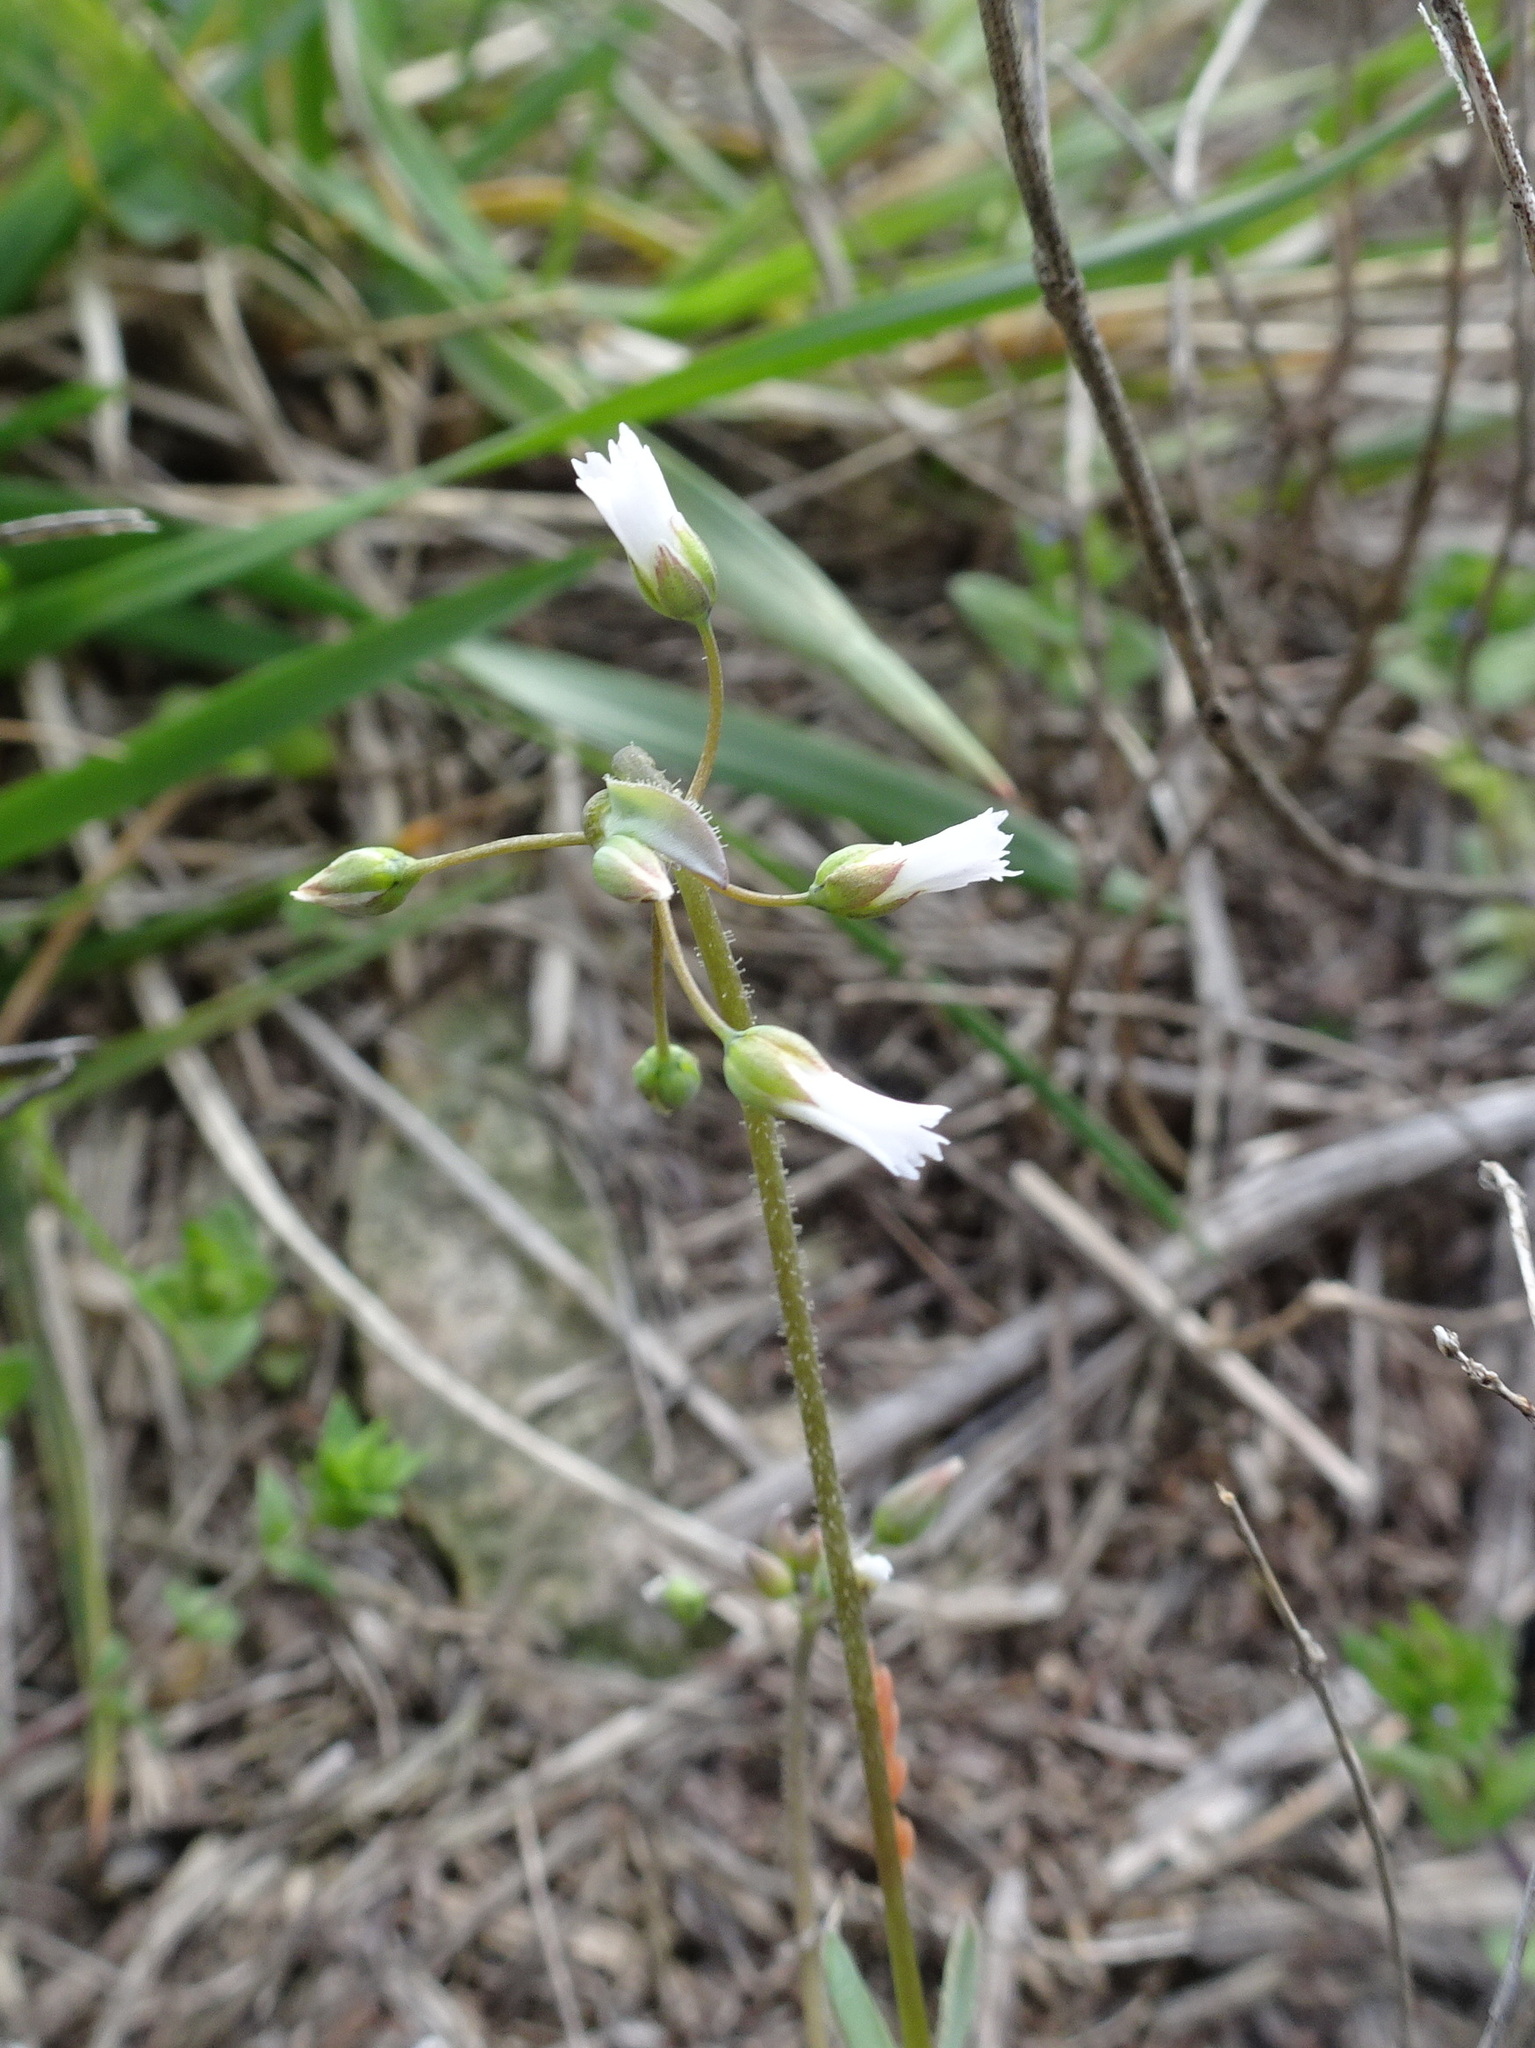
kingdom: Plantae
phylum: Tracheophyta
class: Magnoliopsida
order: Caryophyllales
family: Caryophyllaceae
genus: Holosteum
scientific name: Holosteum umbellatum
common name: Jagged chickweed
